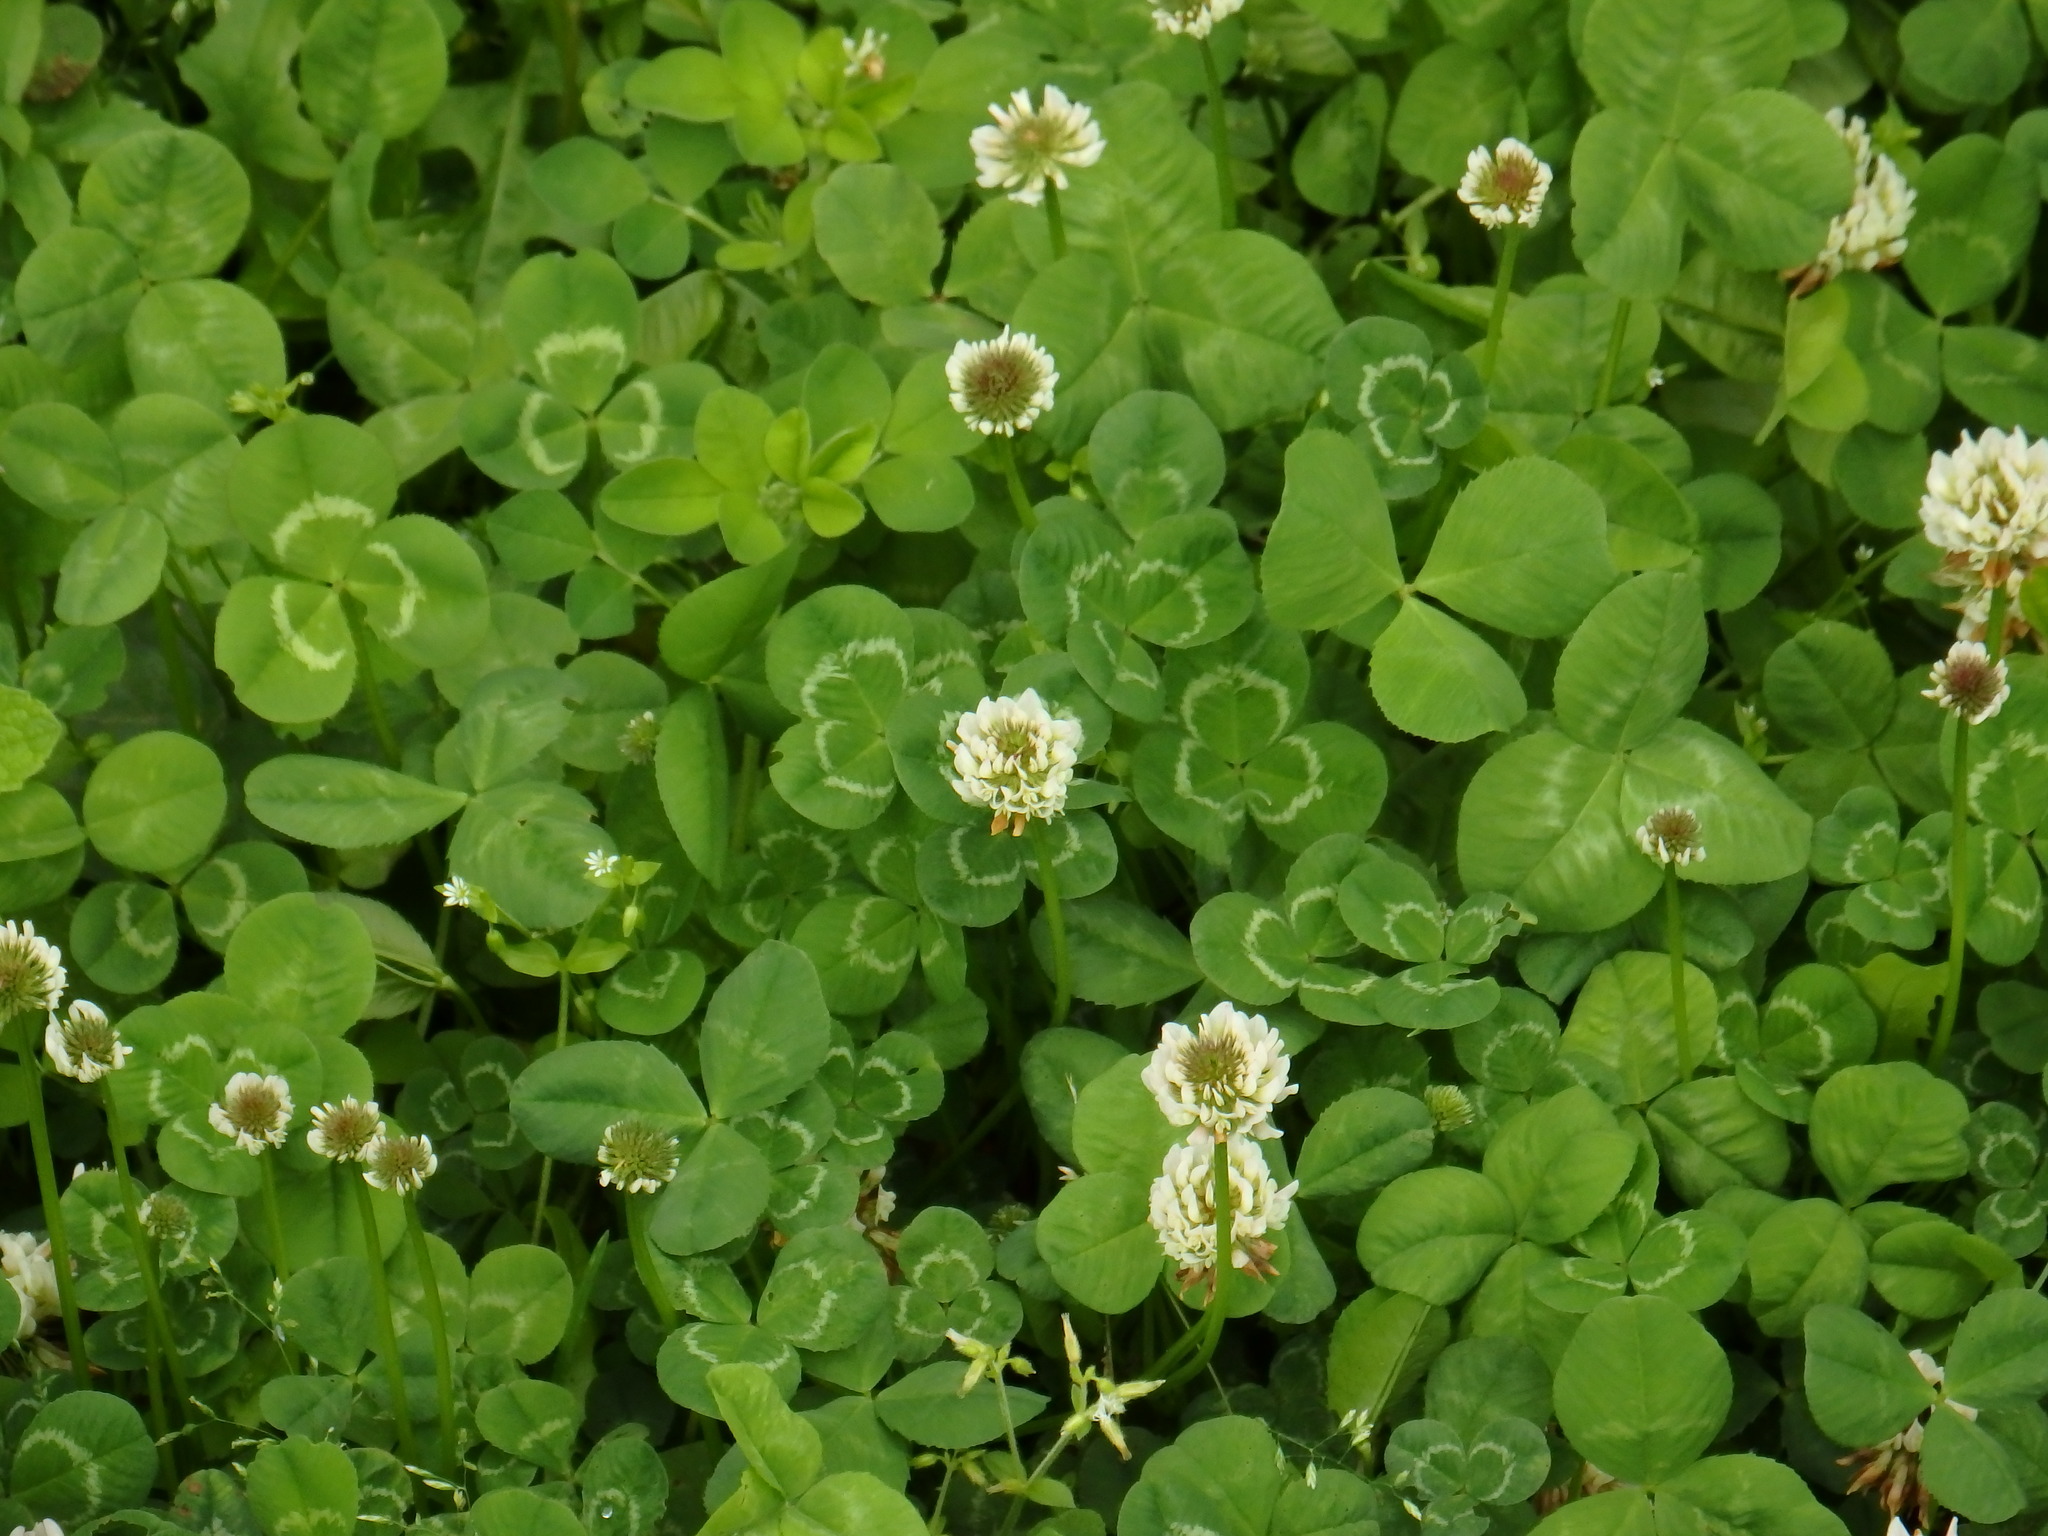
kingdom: Plantae
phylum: Tracheophyta
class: Magnoliopsida
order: Fabales
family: Fabaceae
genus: Trifolium
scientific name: Trifolium repens
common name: White clover
